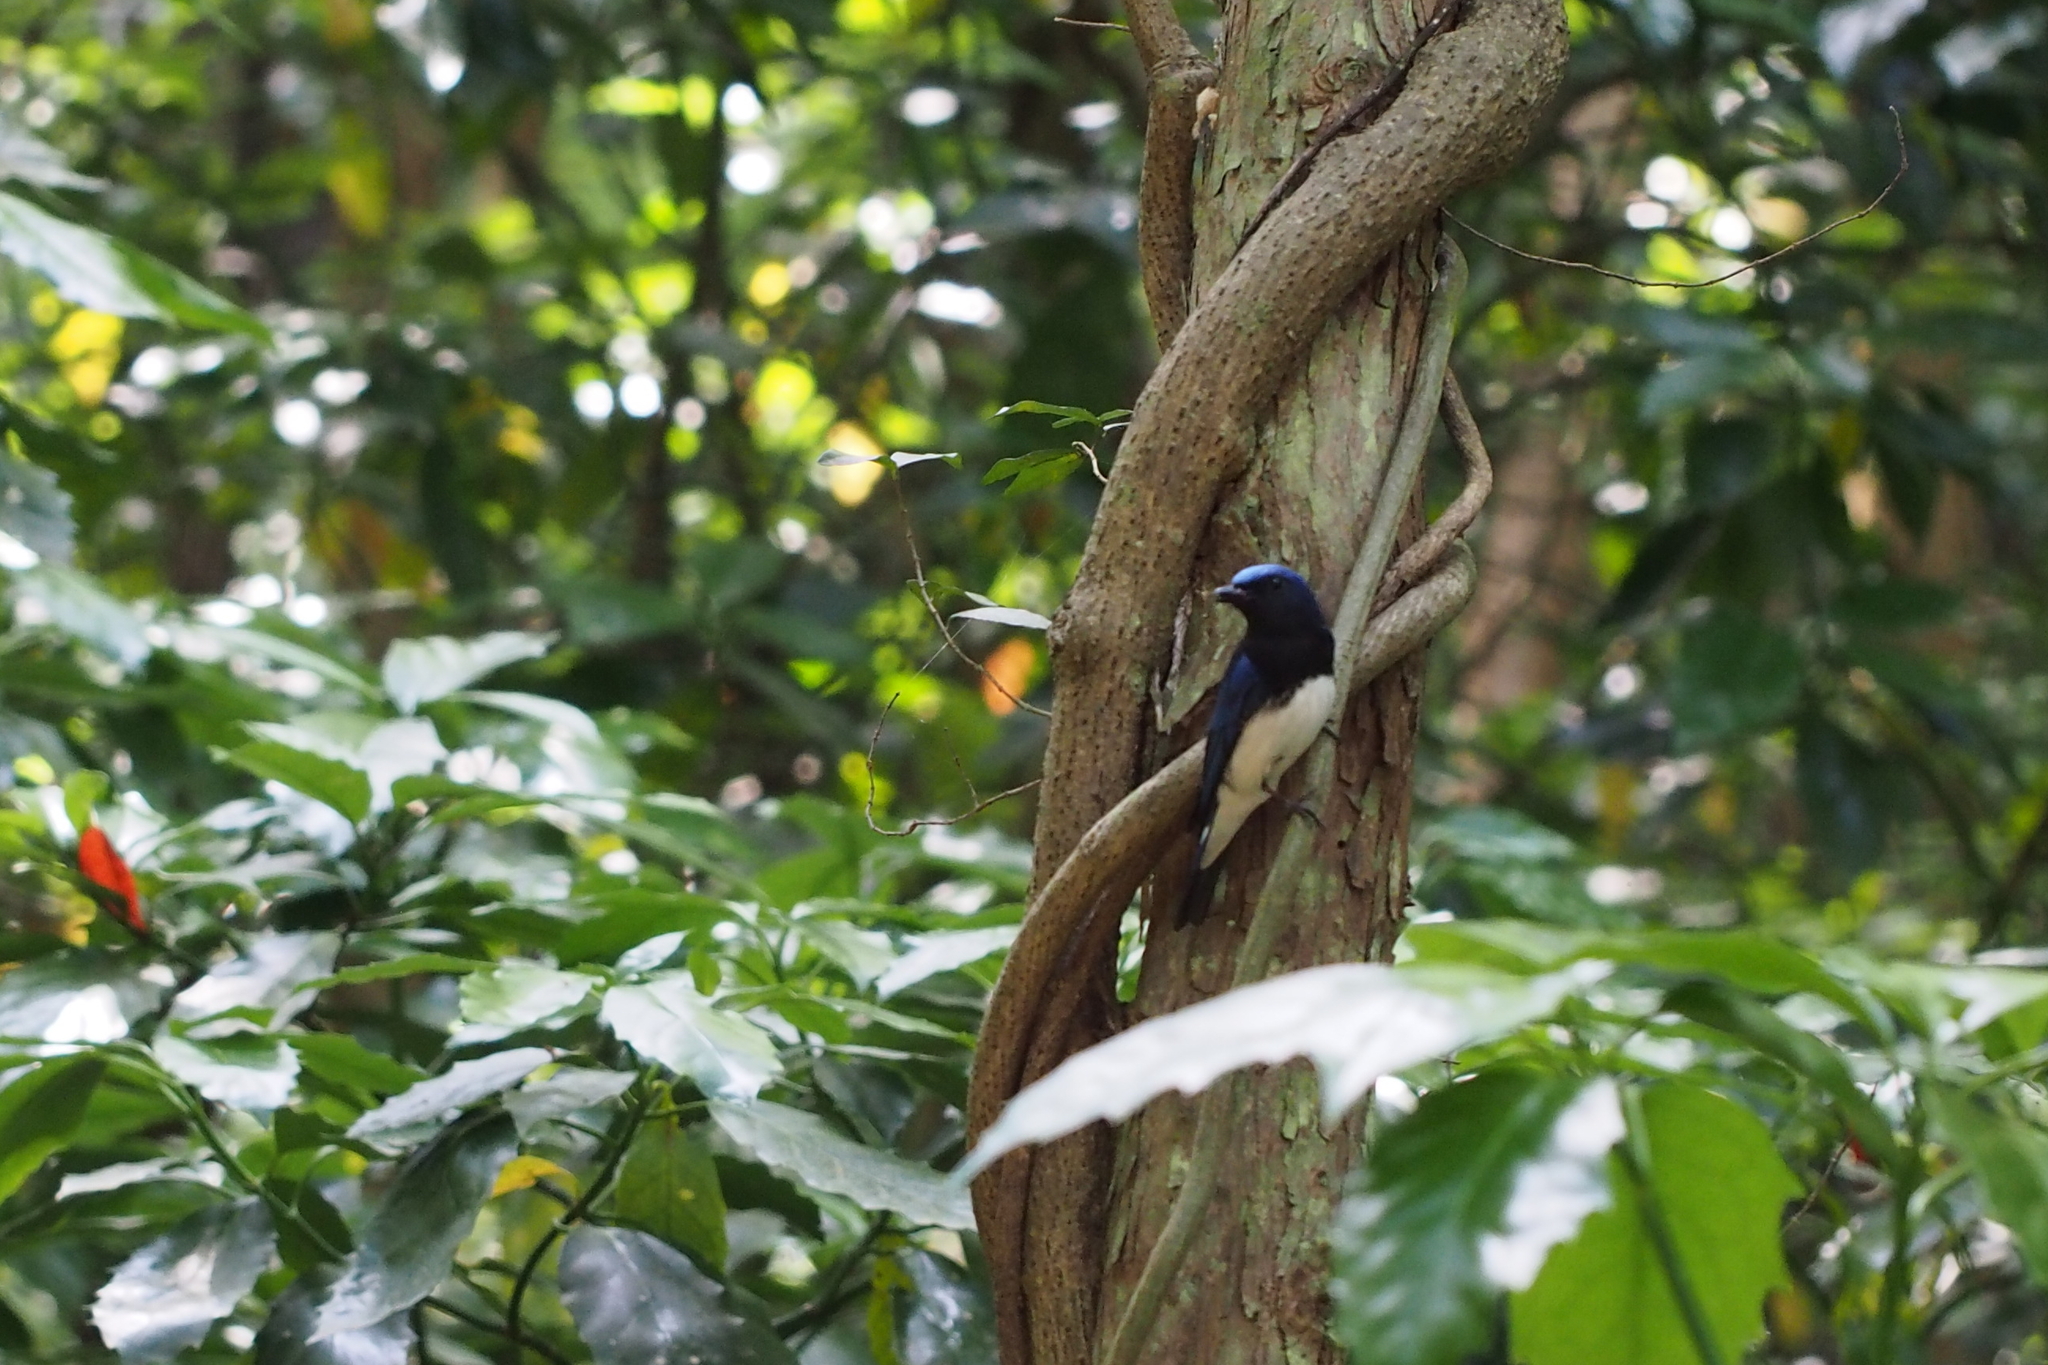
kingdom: Animalia
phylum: Chordata
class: Aves
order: Passeriformes
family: Muscicapidae
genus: Cyanoptila
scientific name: Cyanoptila cyanomelana
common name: Blue-and-white flycatcher
